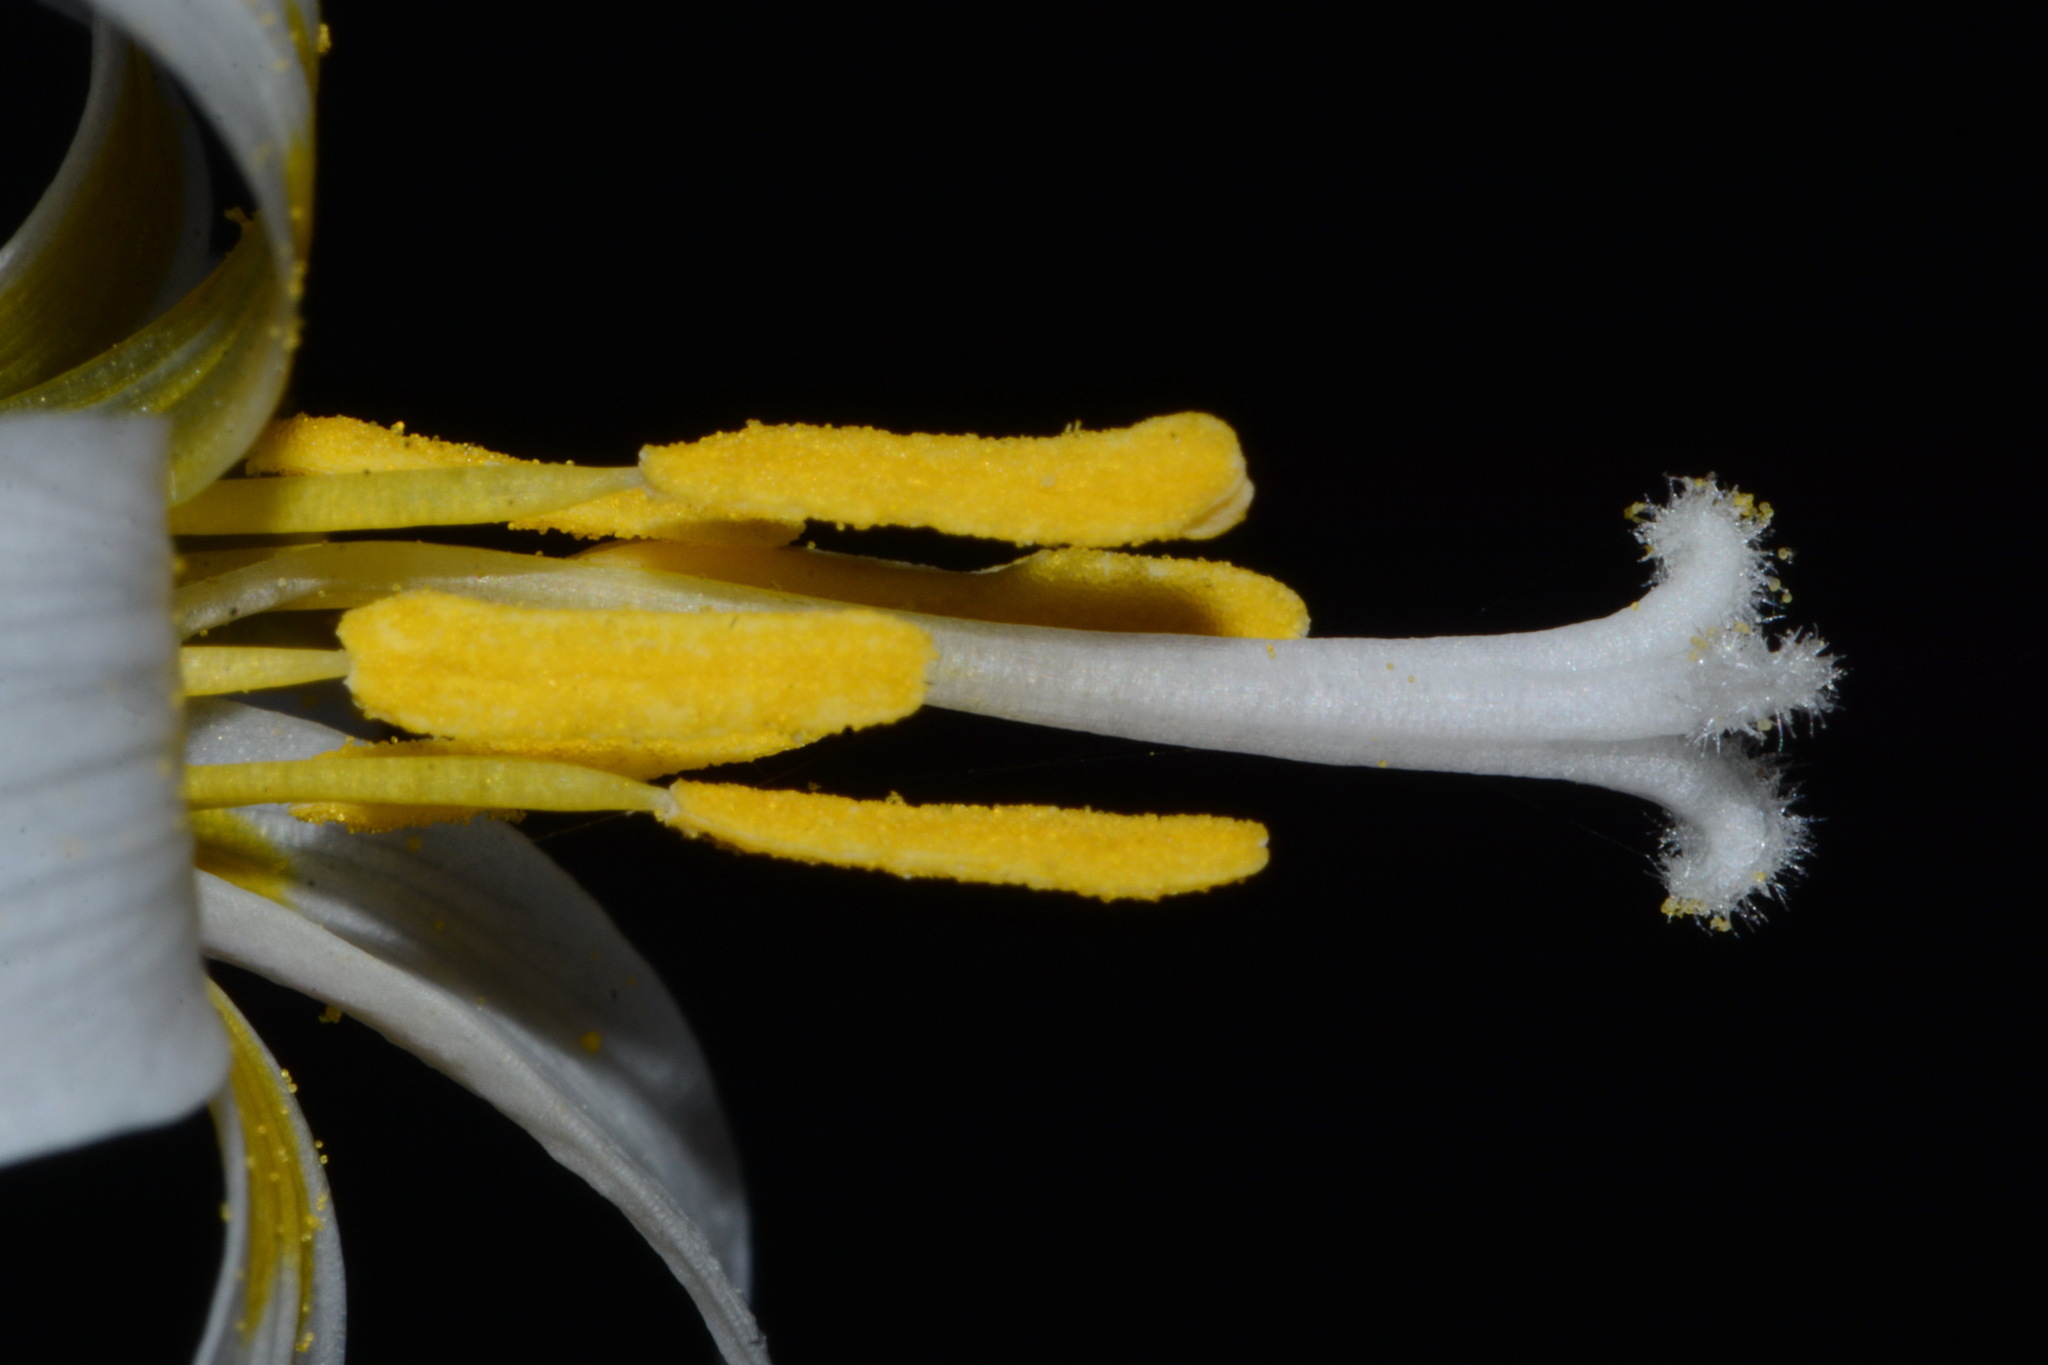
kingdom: Plantae
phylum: Tracheophyta
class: Liliopsida
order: Liliales
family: Liliaceae
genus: Erythronium
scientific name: Erythronium albidum
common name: White trout-lily
